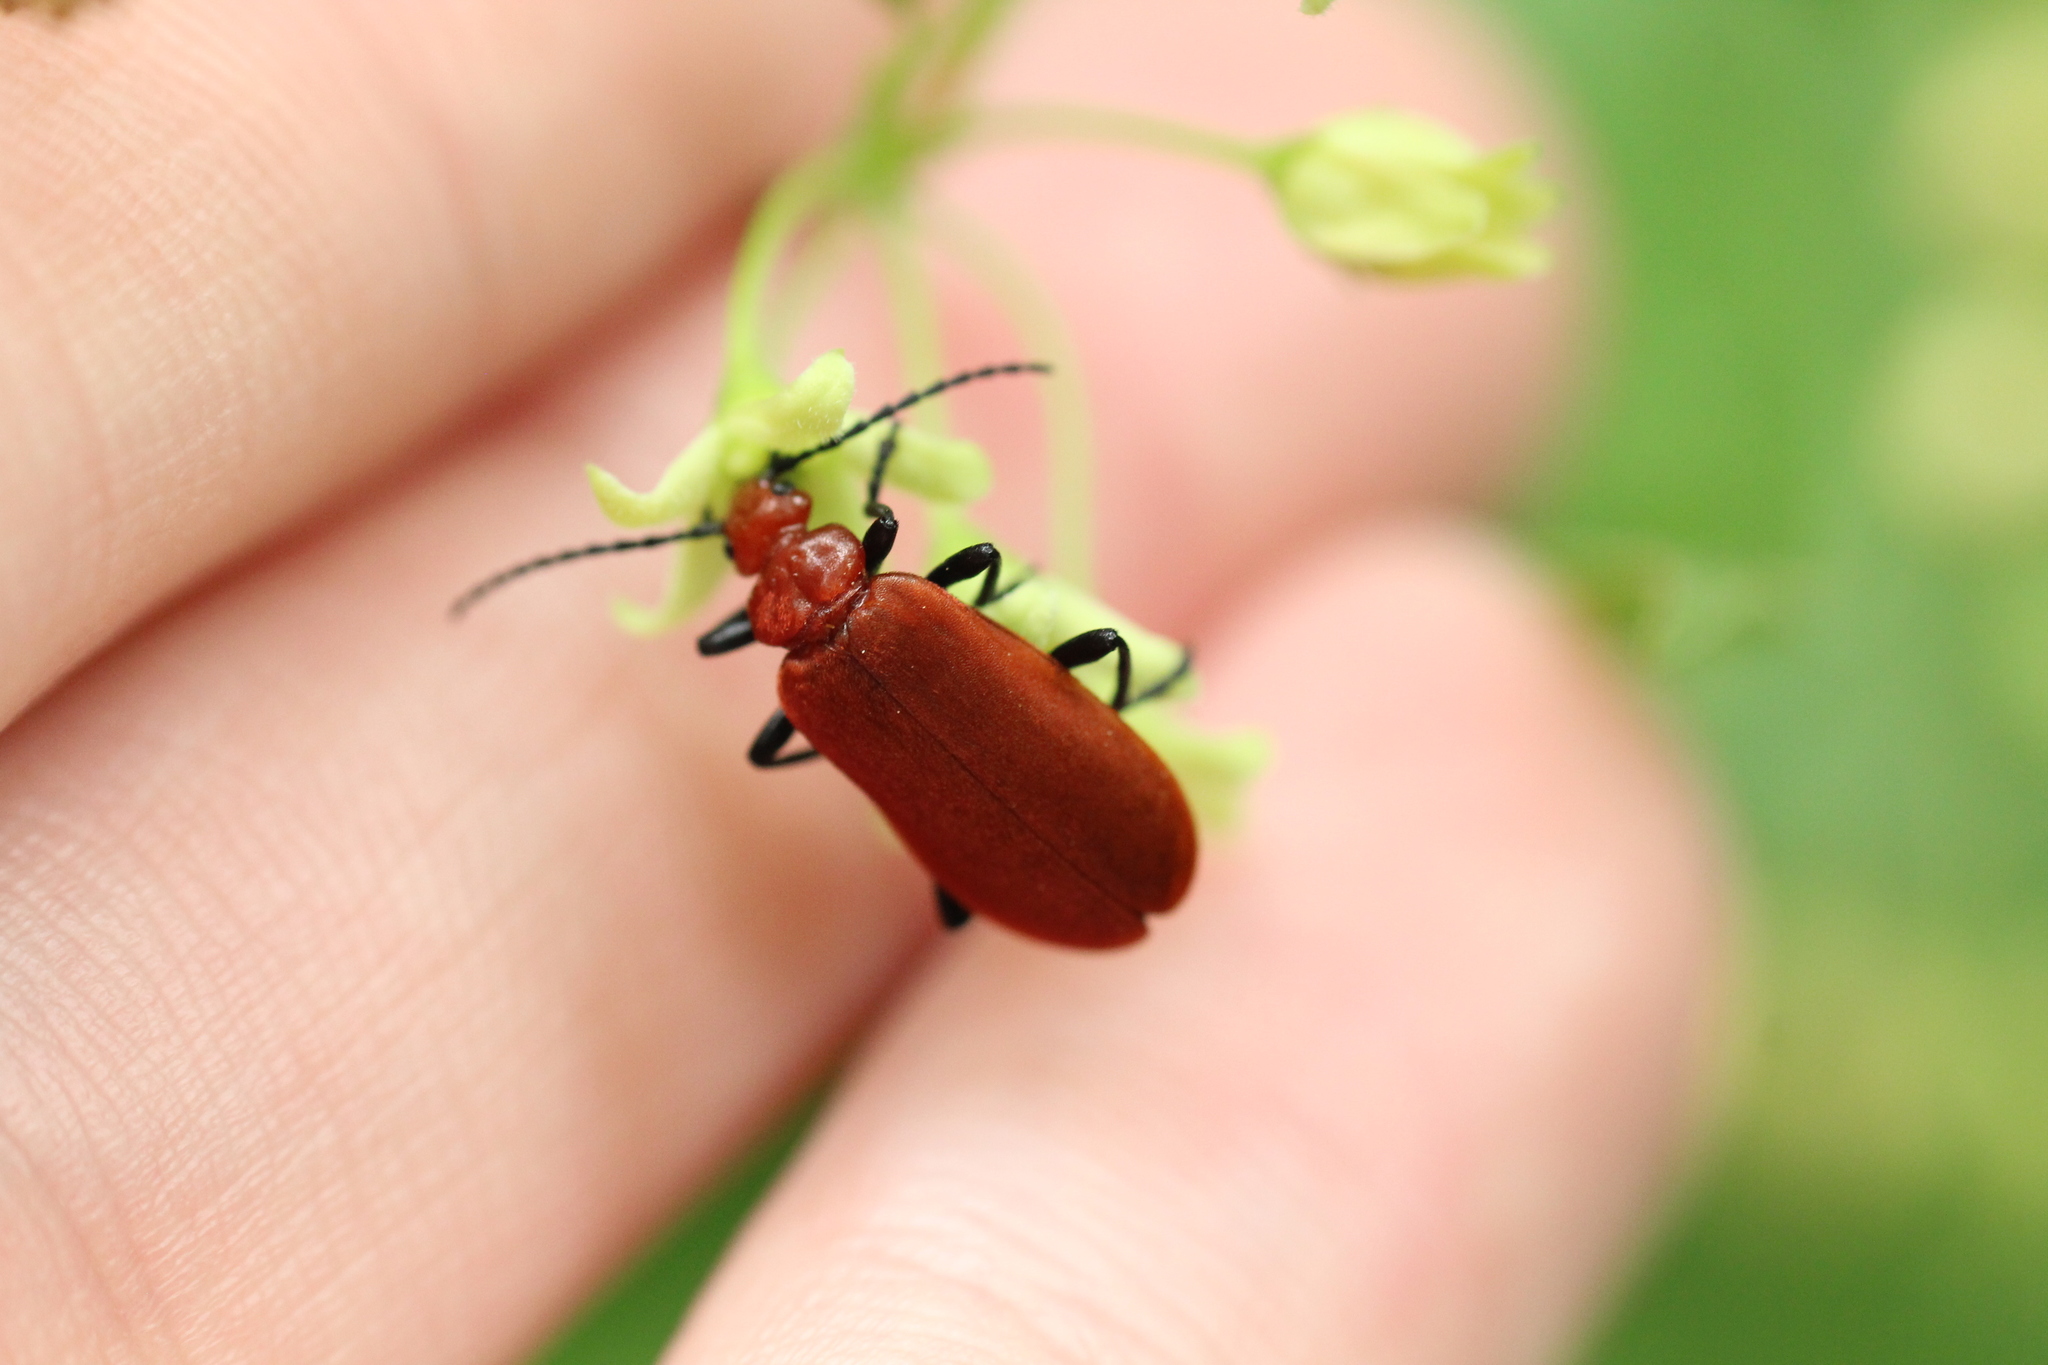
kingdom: Animalia
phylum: Arthropoda
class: Insecta
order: Coleoptera
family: Pyrochroidae
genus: Pyrochroa
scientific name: Pyrochroa serraticornis
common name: Red-headed cardinal beetle
